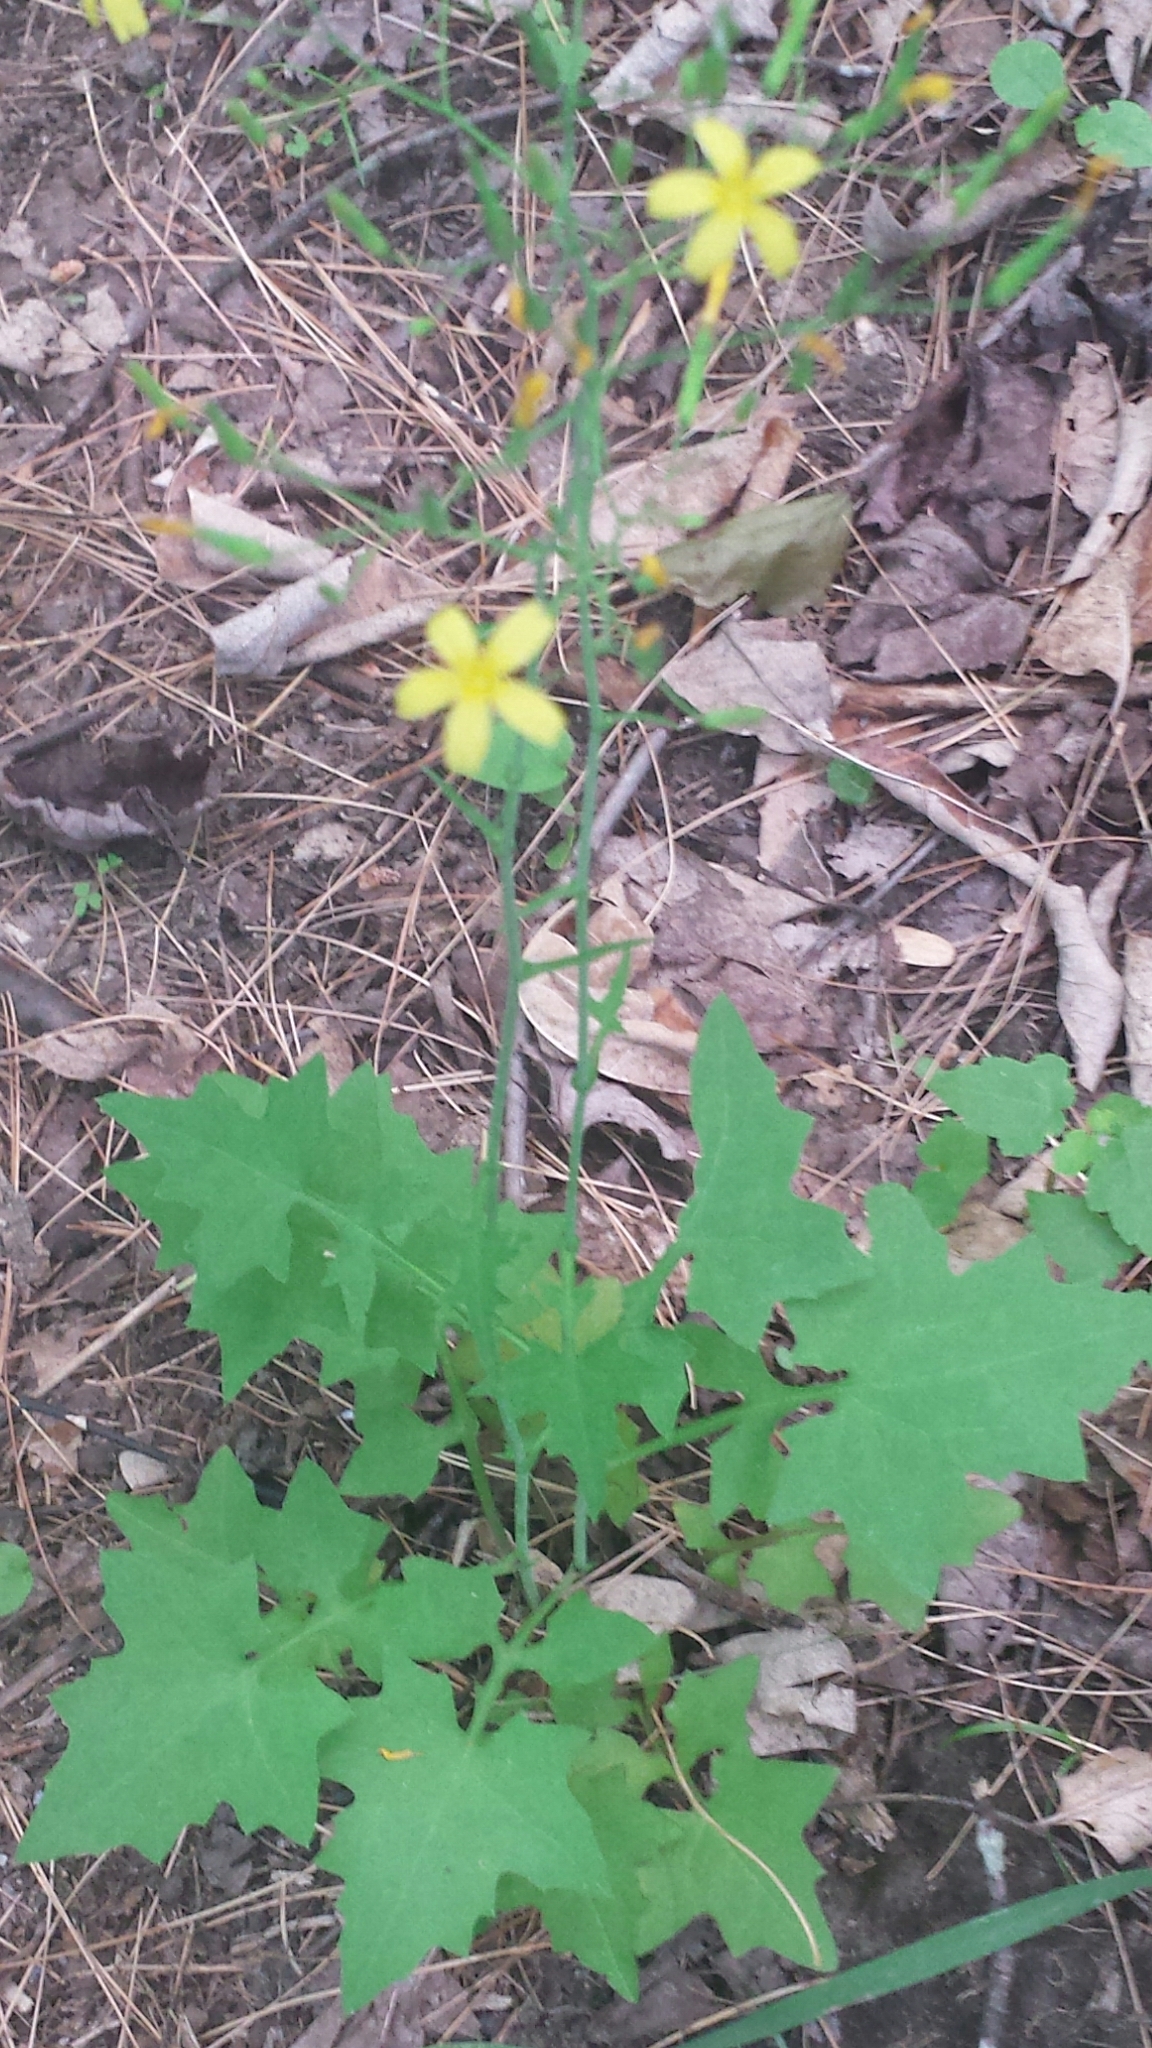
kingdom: Plantae
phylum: Tracheophyta
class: Magnoliopsida
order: Asterales
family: Asteraceae
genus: Mycelis
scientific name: Mycelis muralis
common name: Wall lettuce
